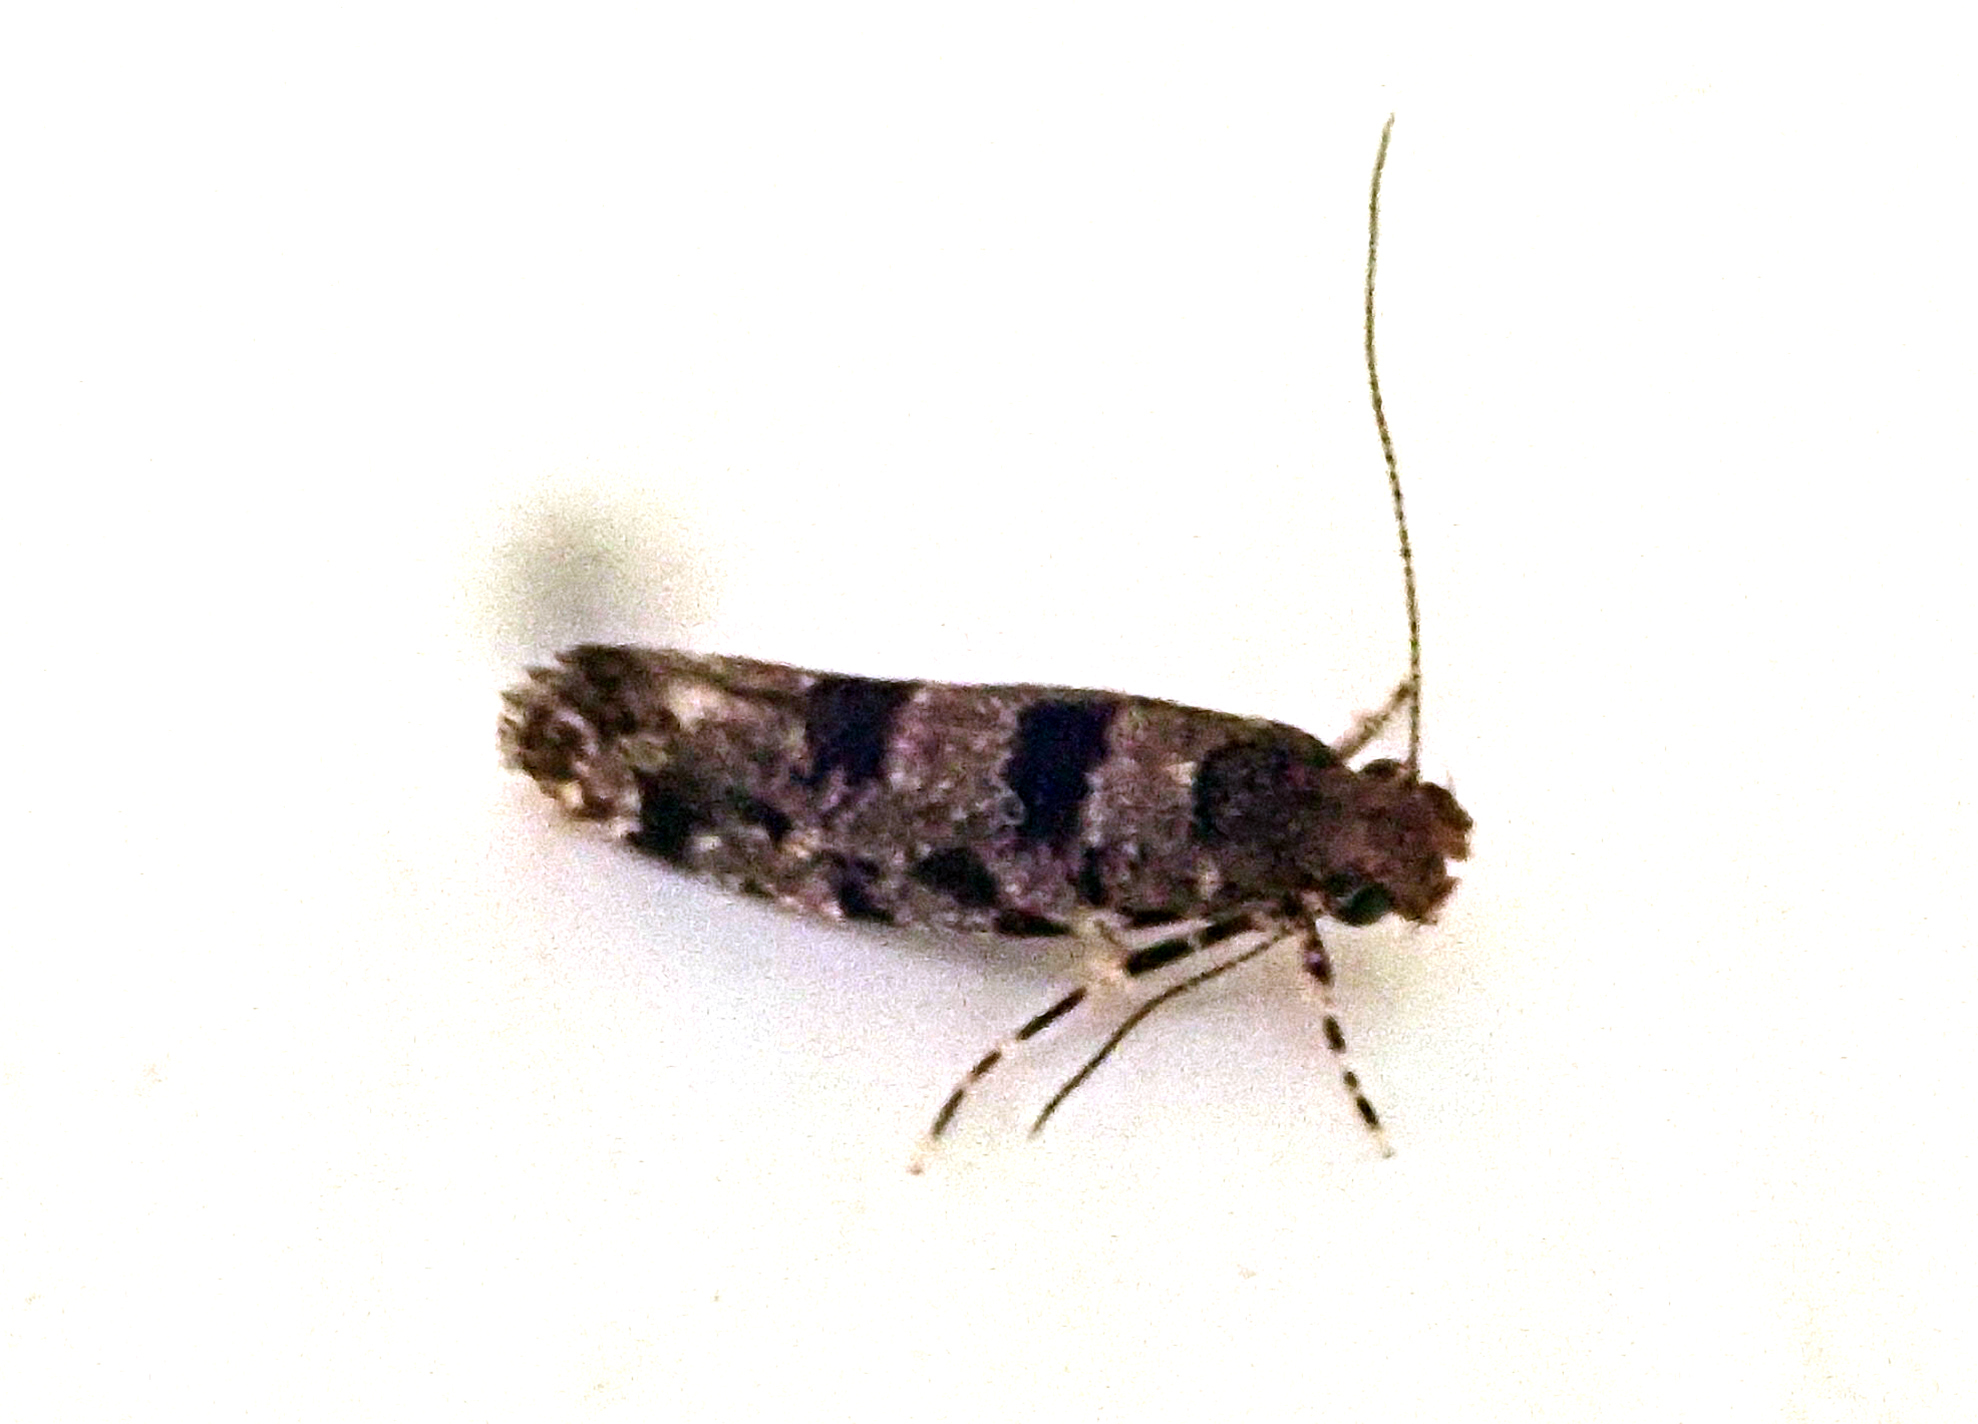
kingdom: Animalia
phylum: Arthropoda
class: Insecta
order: Lepidoptera
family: Tineidae
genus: Parochmastis
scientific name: Parochmastis hilderi
